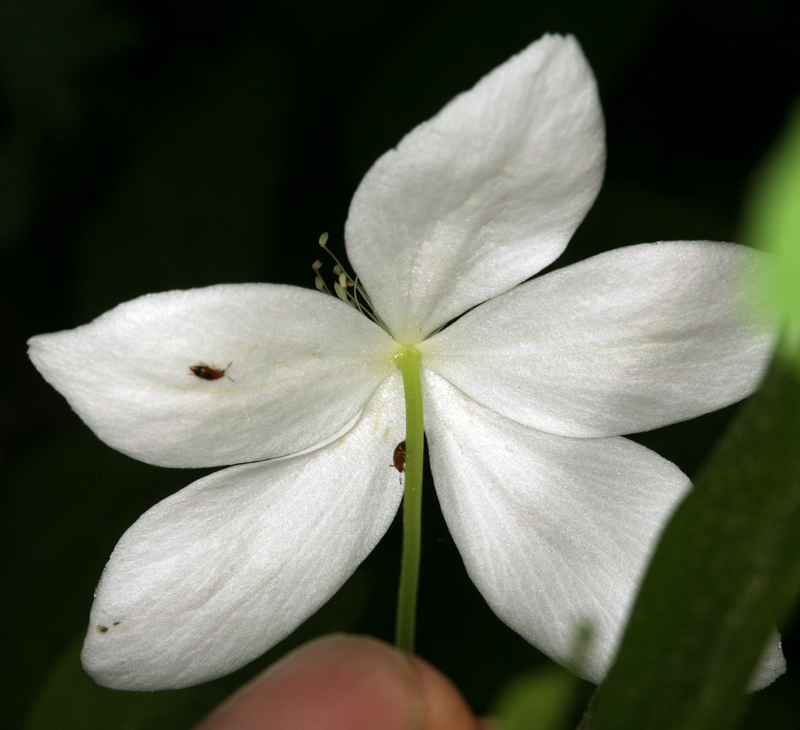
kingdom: Plantae
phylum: Tracheophyta
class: Magnoliopsida
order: Ranunculales
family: Ranunculaceae
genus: Anemonastrum
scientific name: Anemonastrum deltoideum
